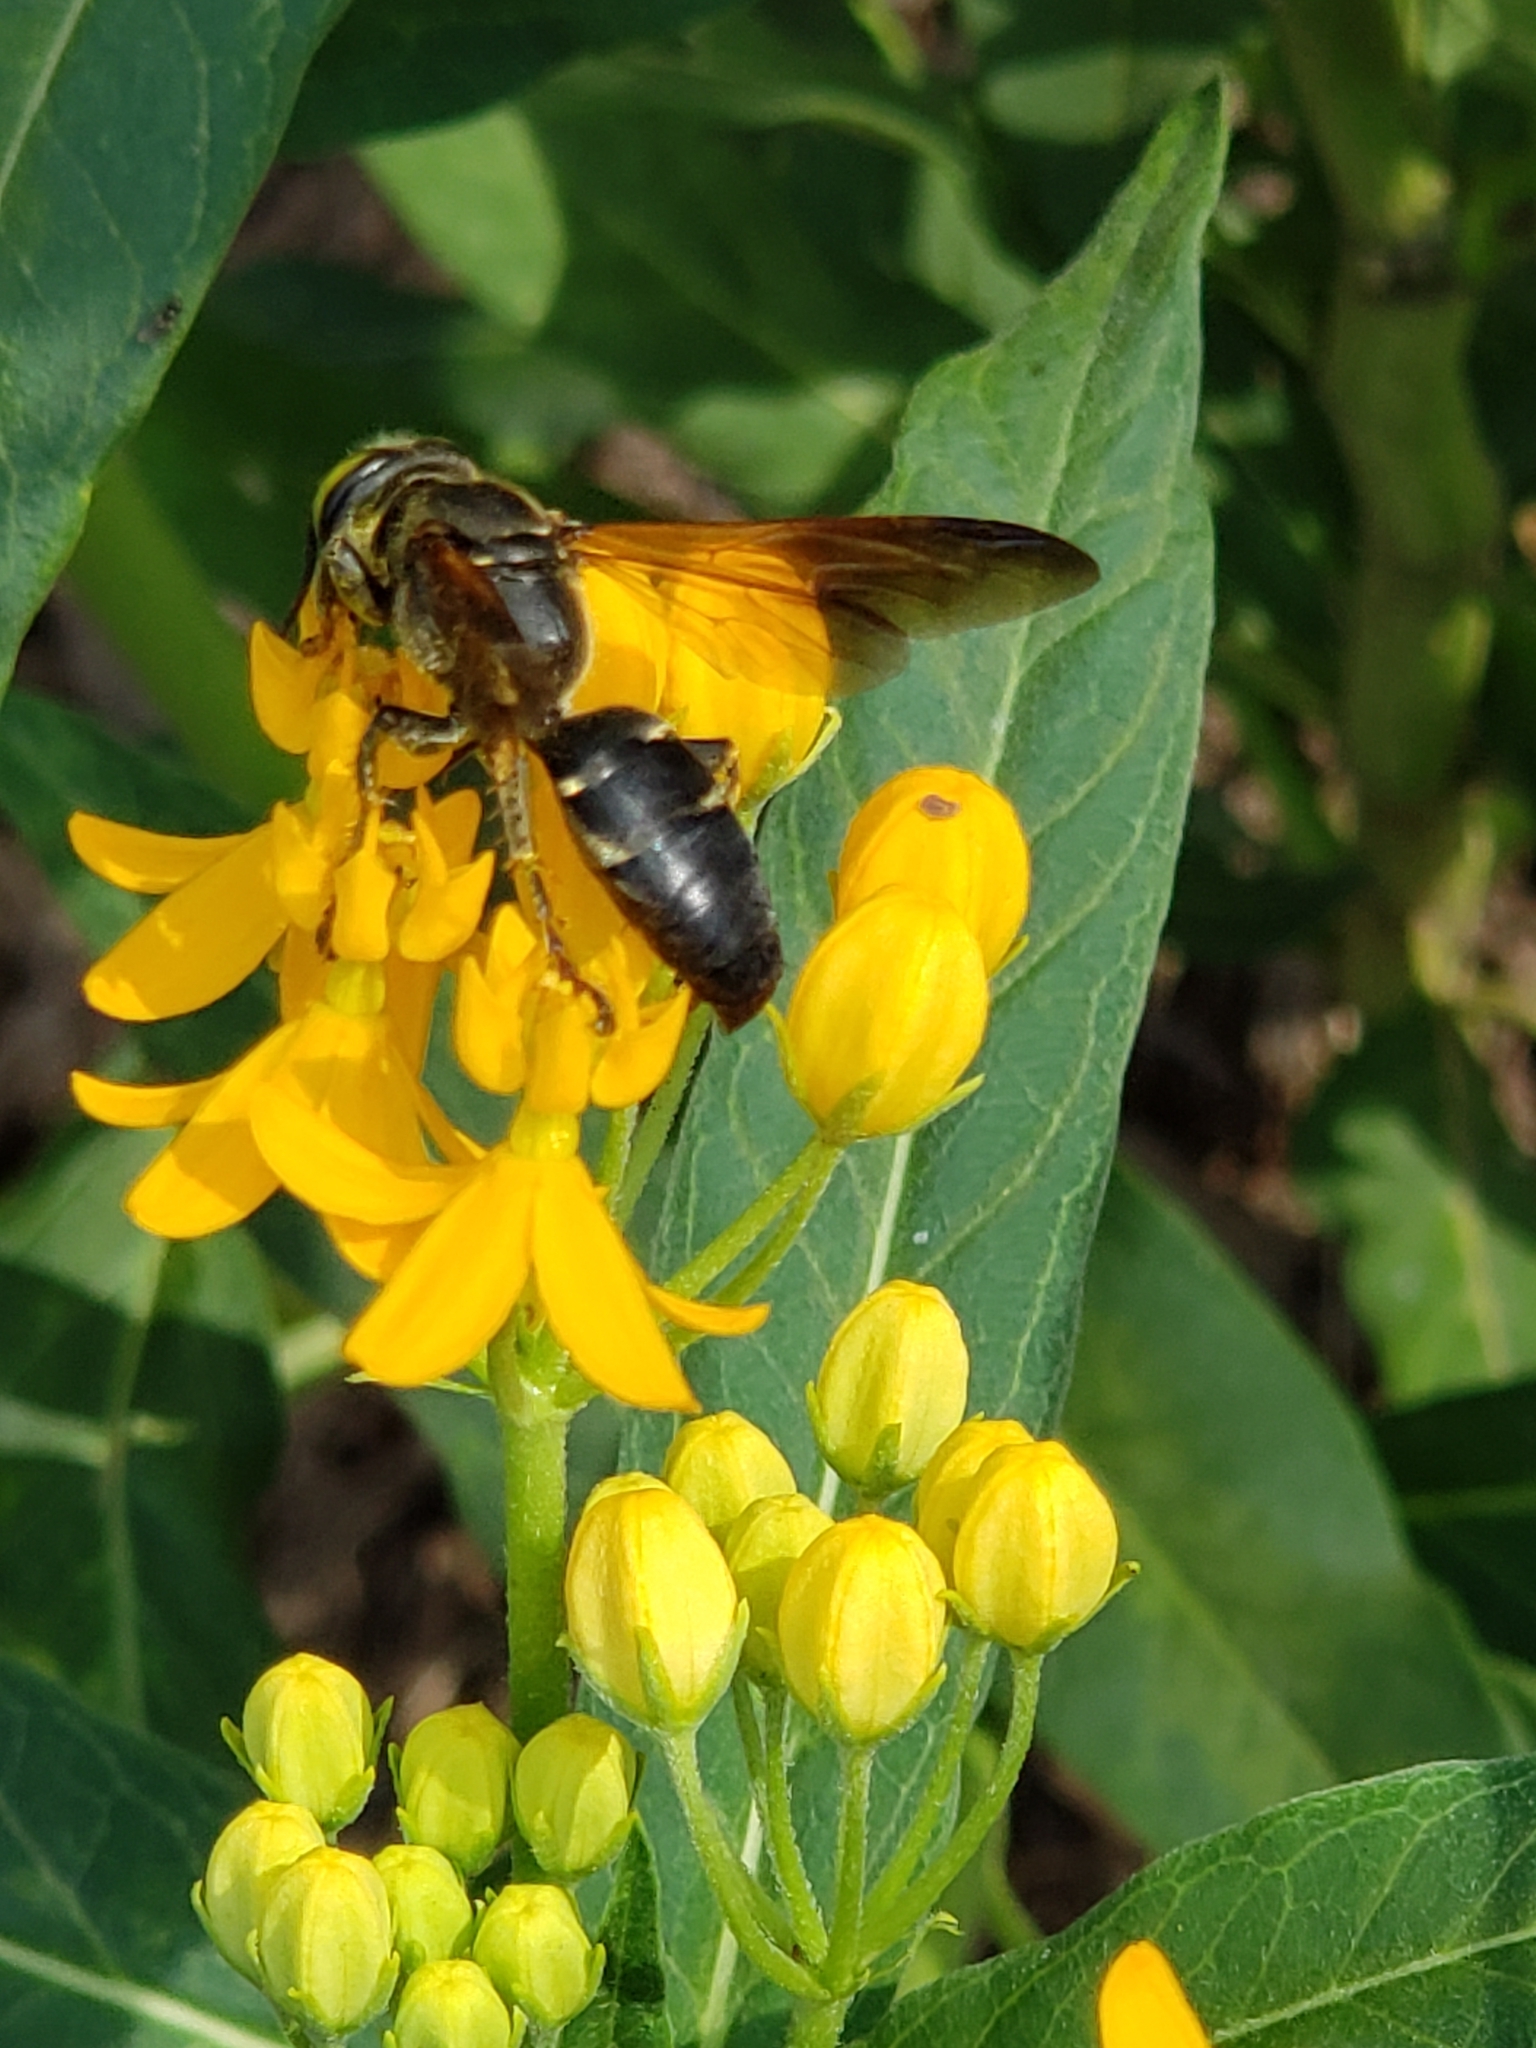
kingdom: Animalia
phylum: Arthropoda
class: Insecta
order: Hymenoptera
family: Crabronidae
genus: Tachytes
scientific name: Tachytes guatemalensis
